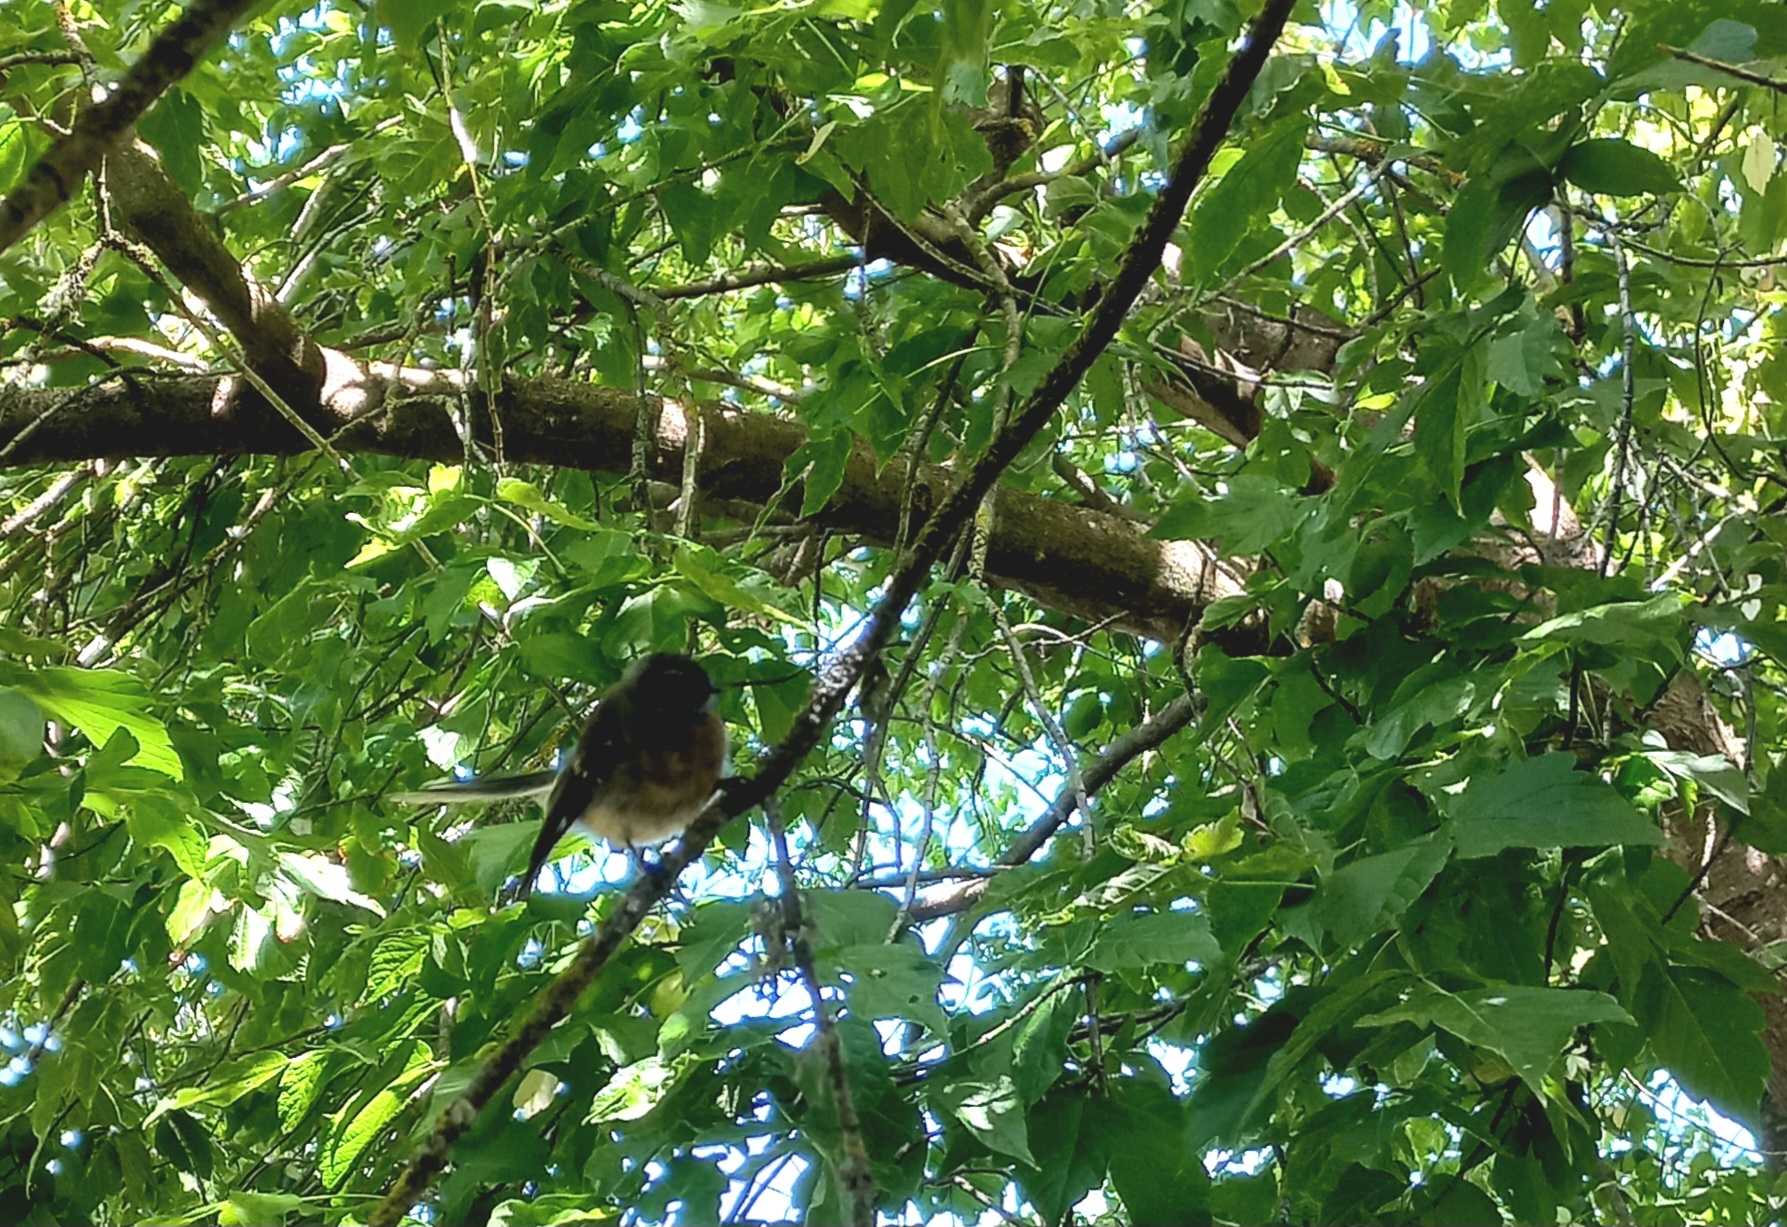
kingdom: Animalia
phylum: Chordata
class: Aves
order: Passeriformes
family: Rhipiduridae
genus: Rhipidura
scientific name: Rhipidura fuliginosa
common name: New zealand fantail
